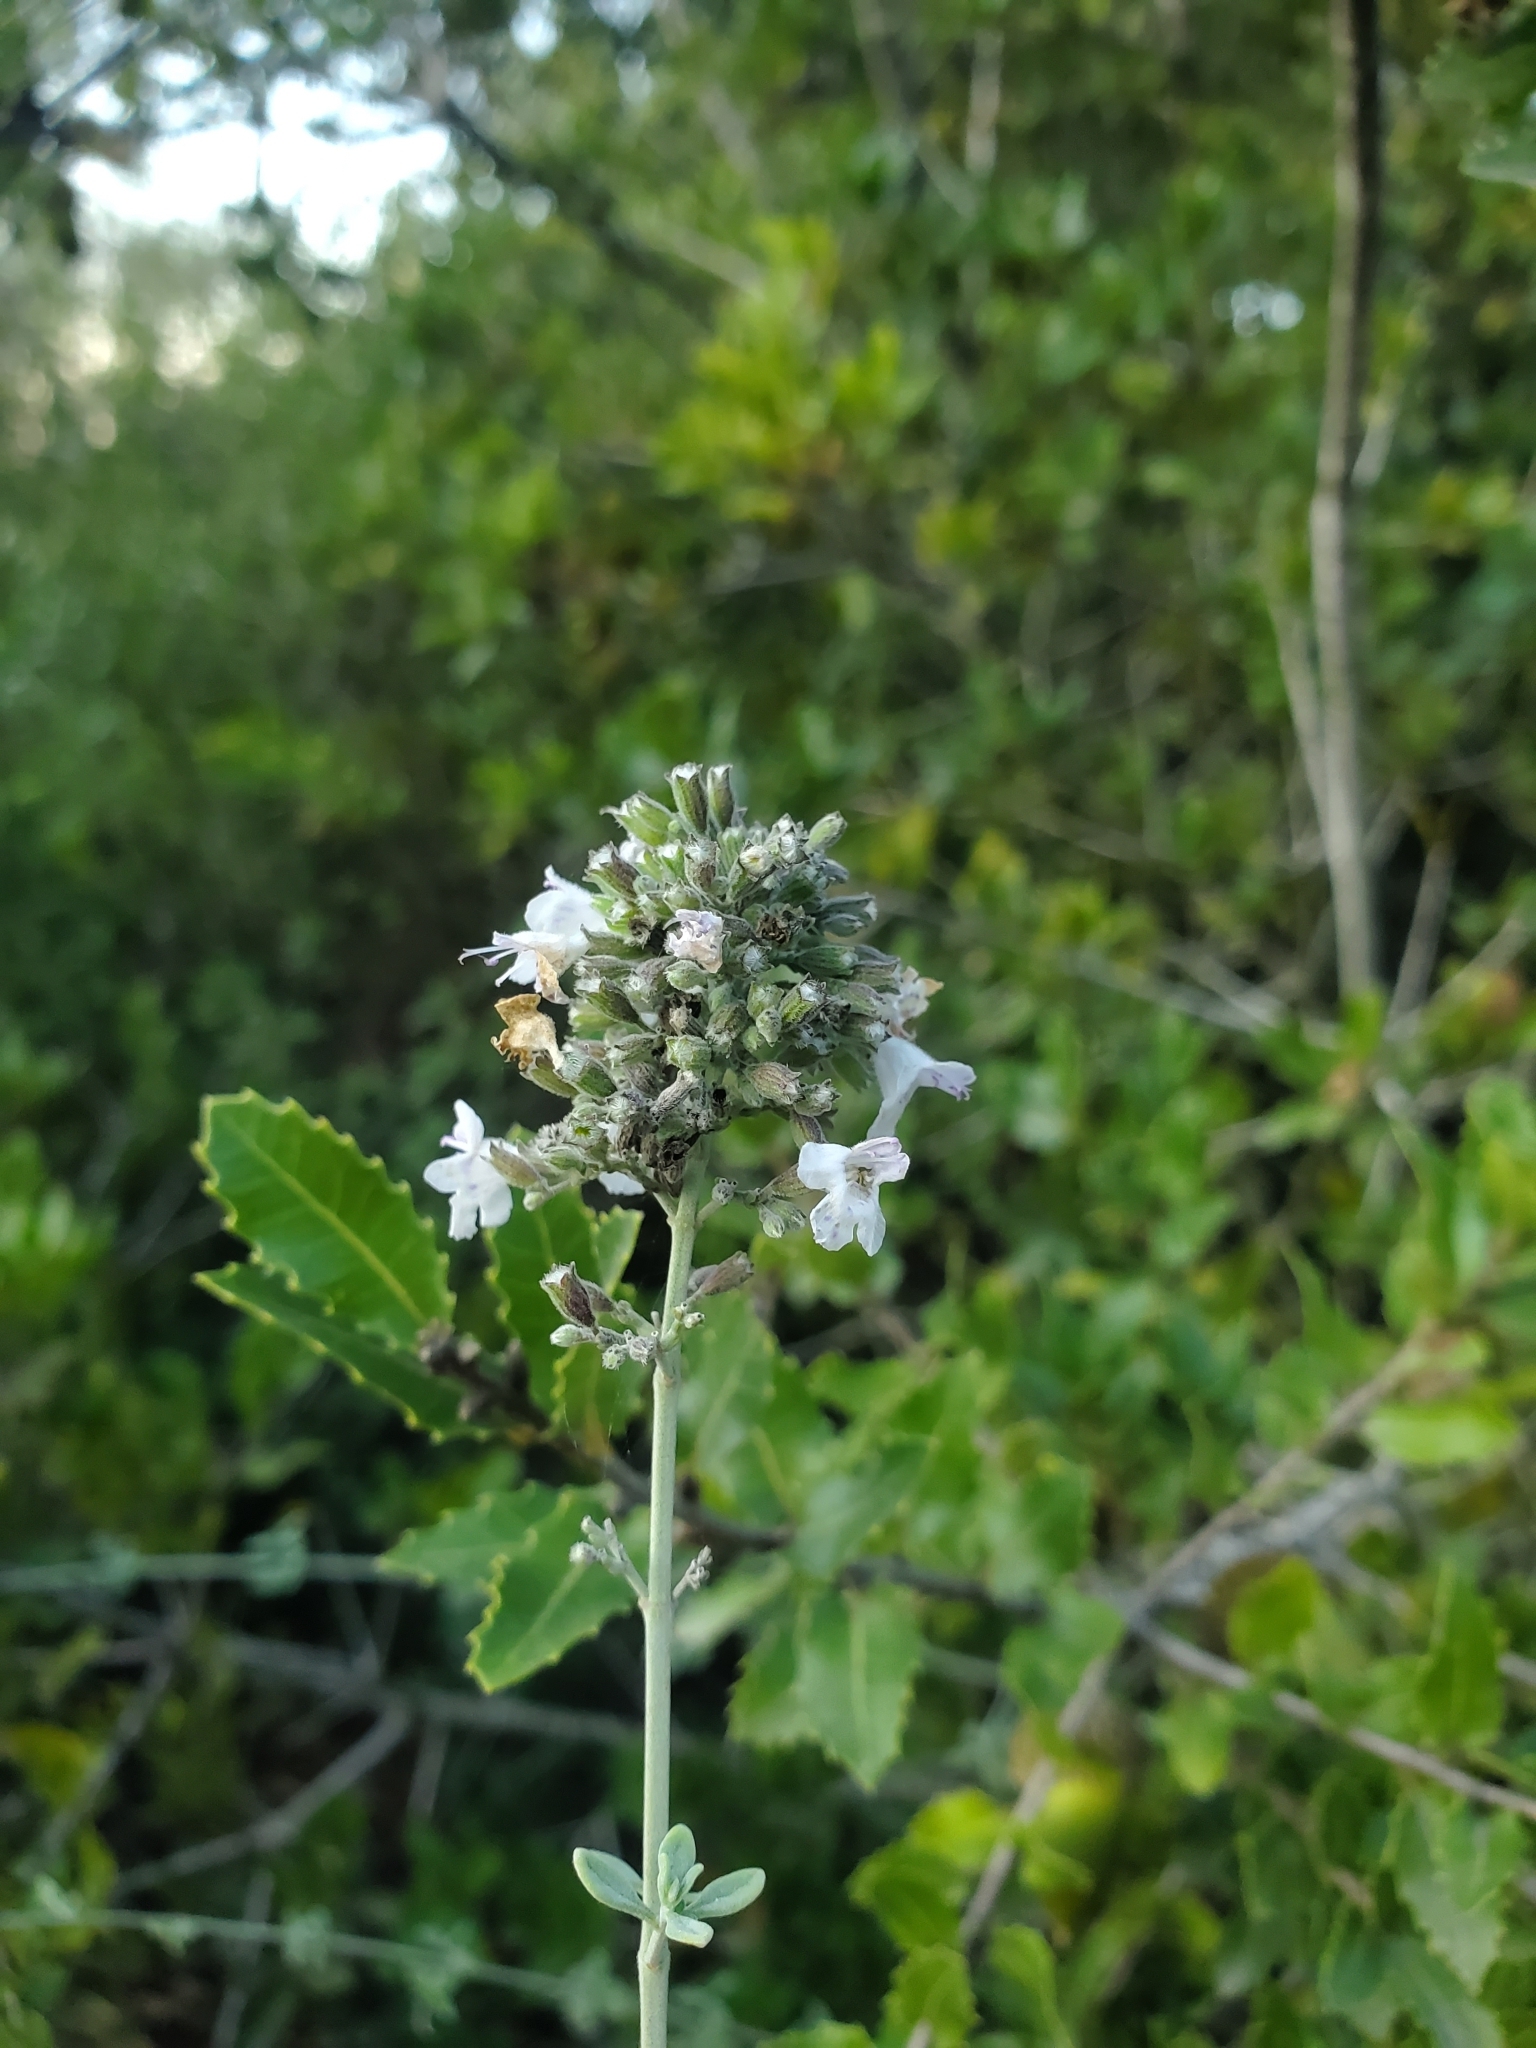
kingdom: Plantae
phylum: Tracheophyta
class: Magnoliopsida
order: Lamiales
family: Lamiaceae
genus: Clinopodium
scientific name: Clinopodium serpyllifolium
